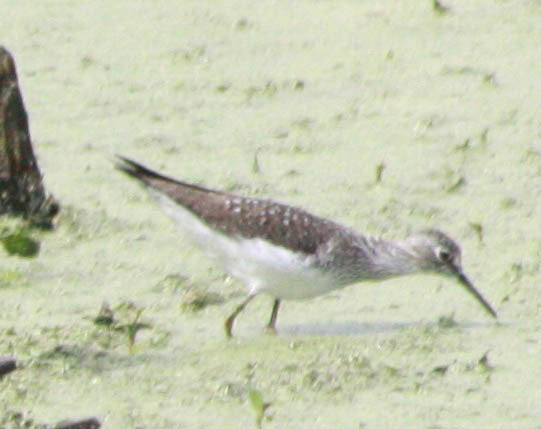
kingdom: Animalia
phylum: Chordata
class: Aves
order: Charadriiformes
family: Scolopacidae
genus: Tringa
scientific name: Tringa solitaria
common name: Solitary sandpiper
